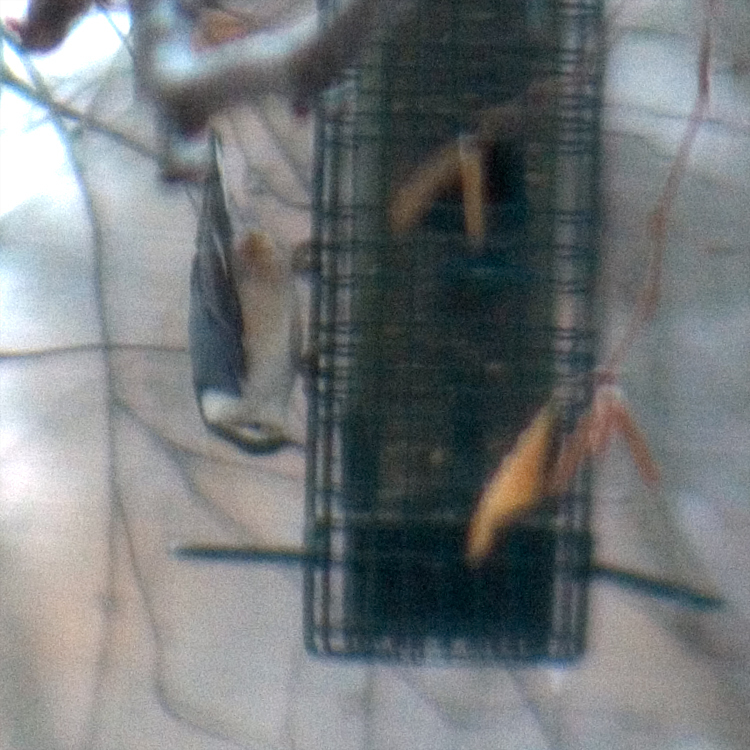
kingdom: Animalia
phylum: Chordata
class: Aves
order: Passeriformes
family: Sittidae
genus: Sitta
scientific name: Sitta carolinensis
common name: White-breasted nuthatch
